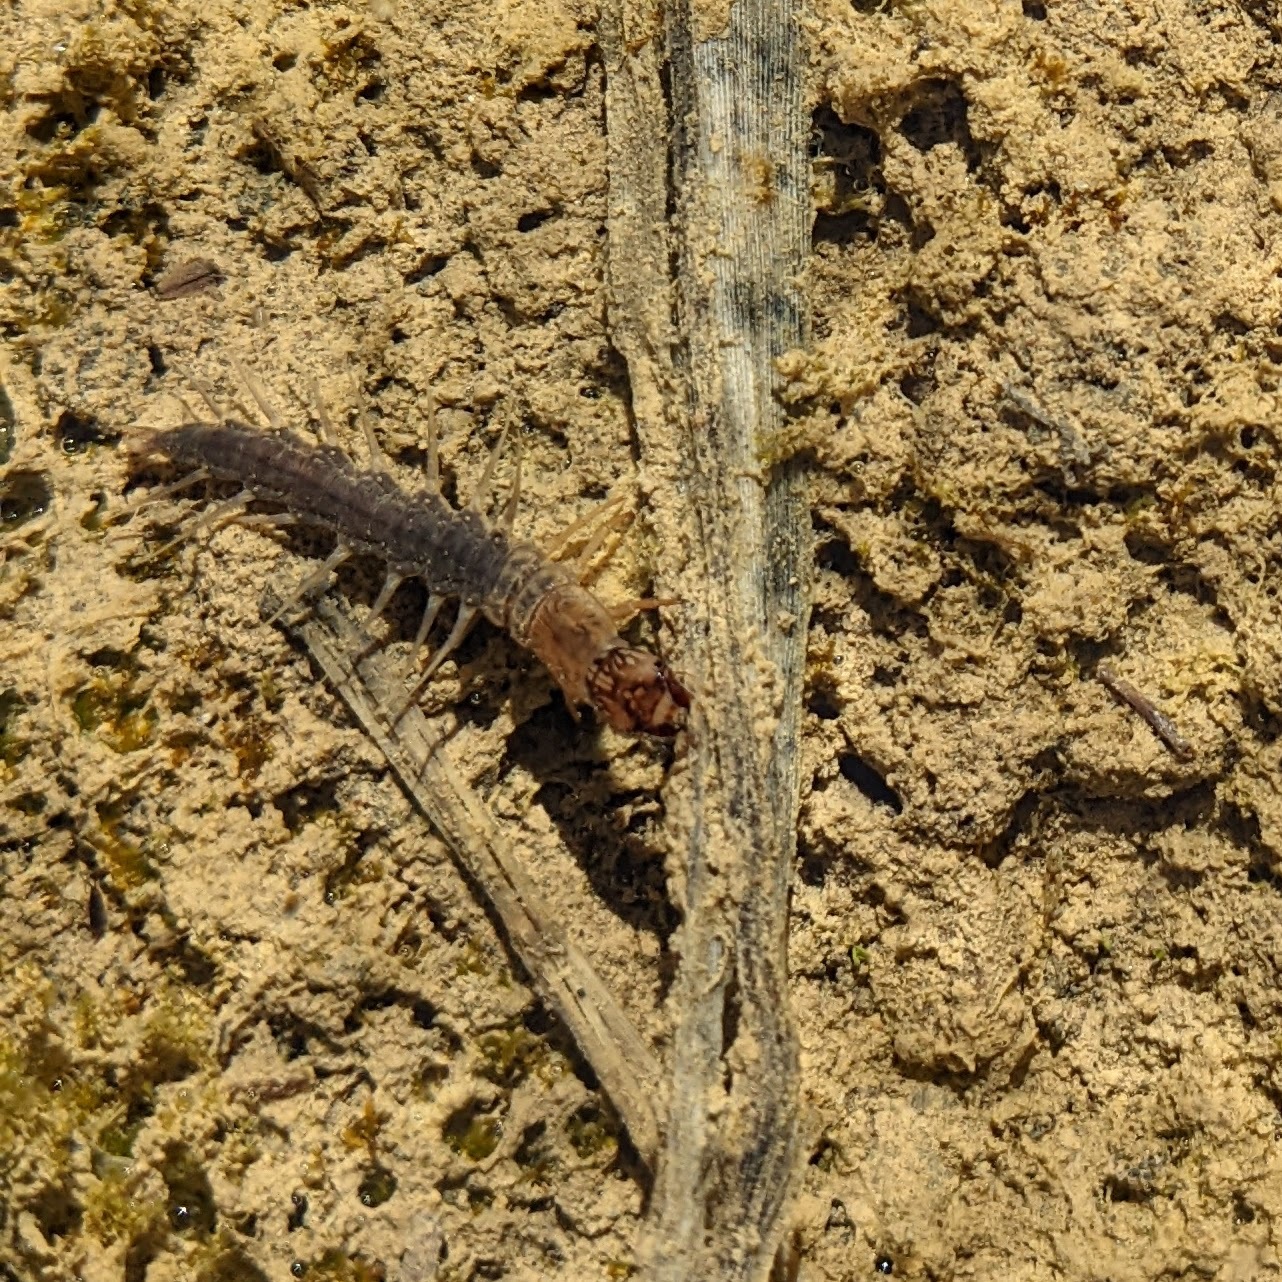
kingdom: Animalia
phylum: Arthropoda
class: Insecta
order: Megaloptera
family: Corydalidae
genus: Neohermes
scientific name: Neohermes filicornis
